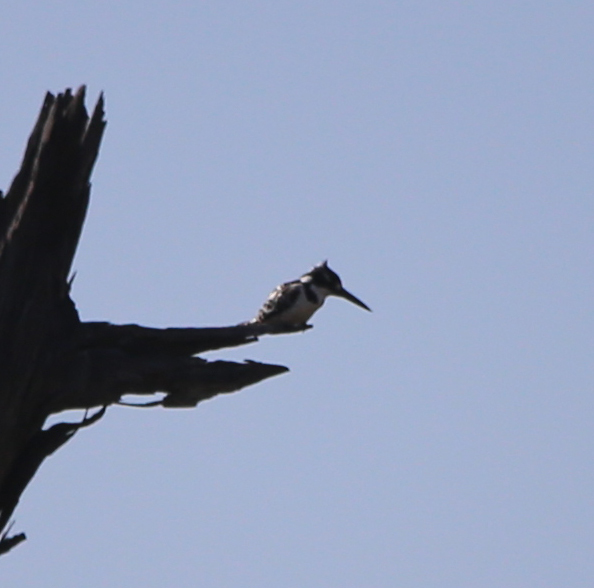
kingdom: Animalia
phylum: Chordata
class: Aves
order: Coraciiformes
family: Alcedinidae
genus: Ceryle
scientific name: Ceryle rudis
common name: Pied kingfisher
